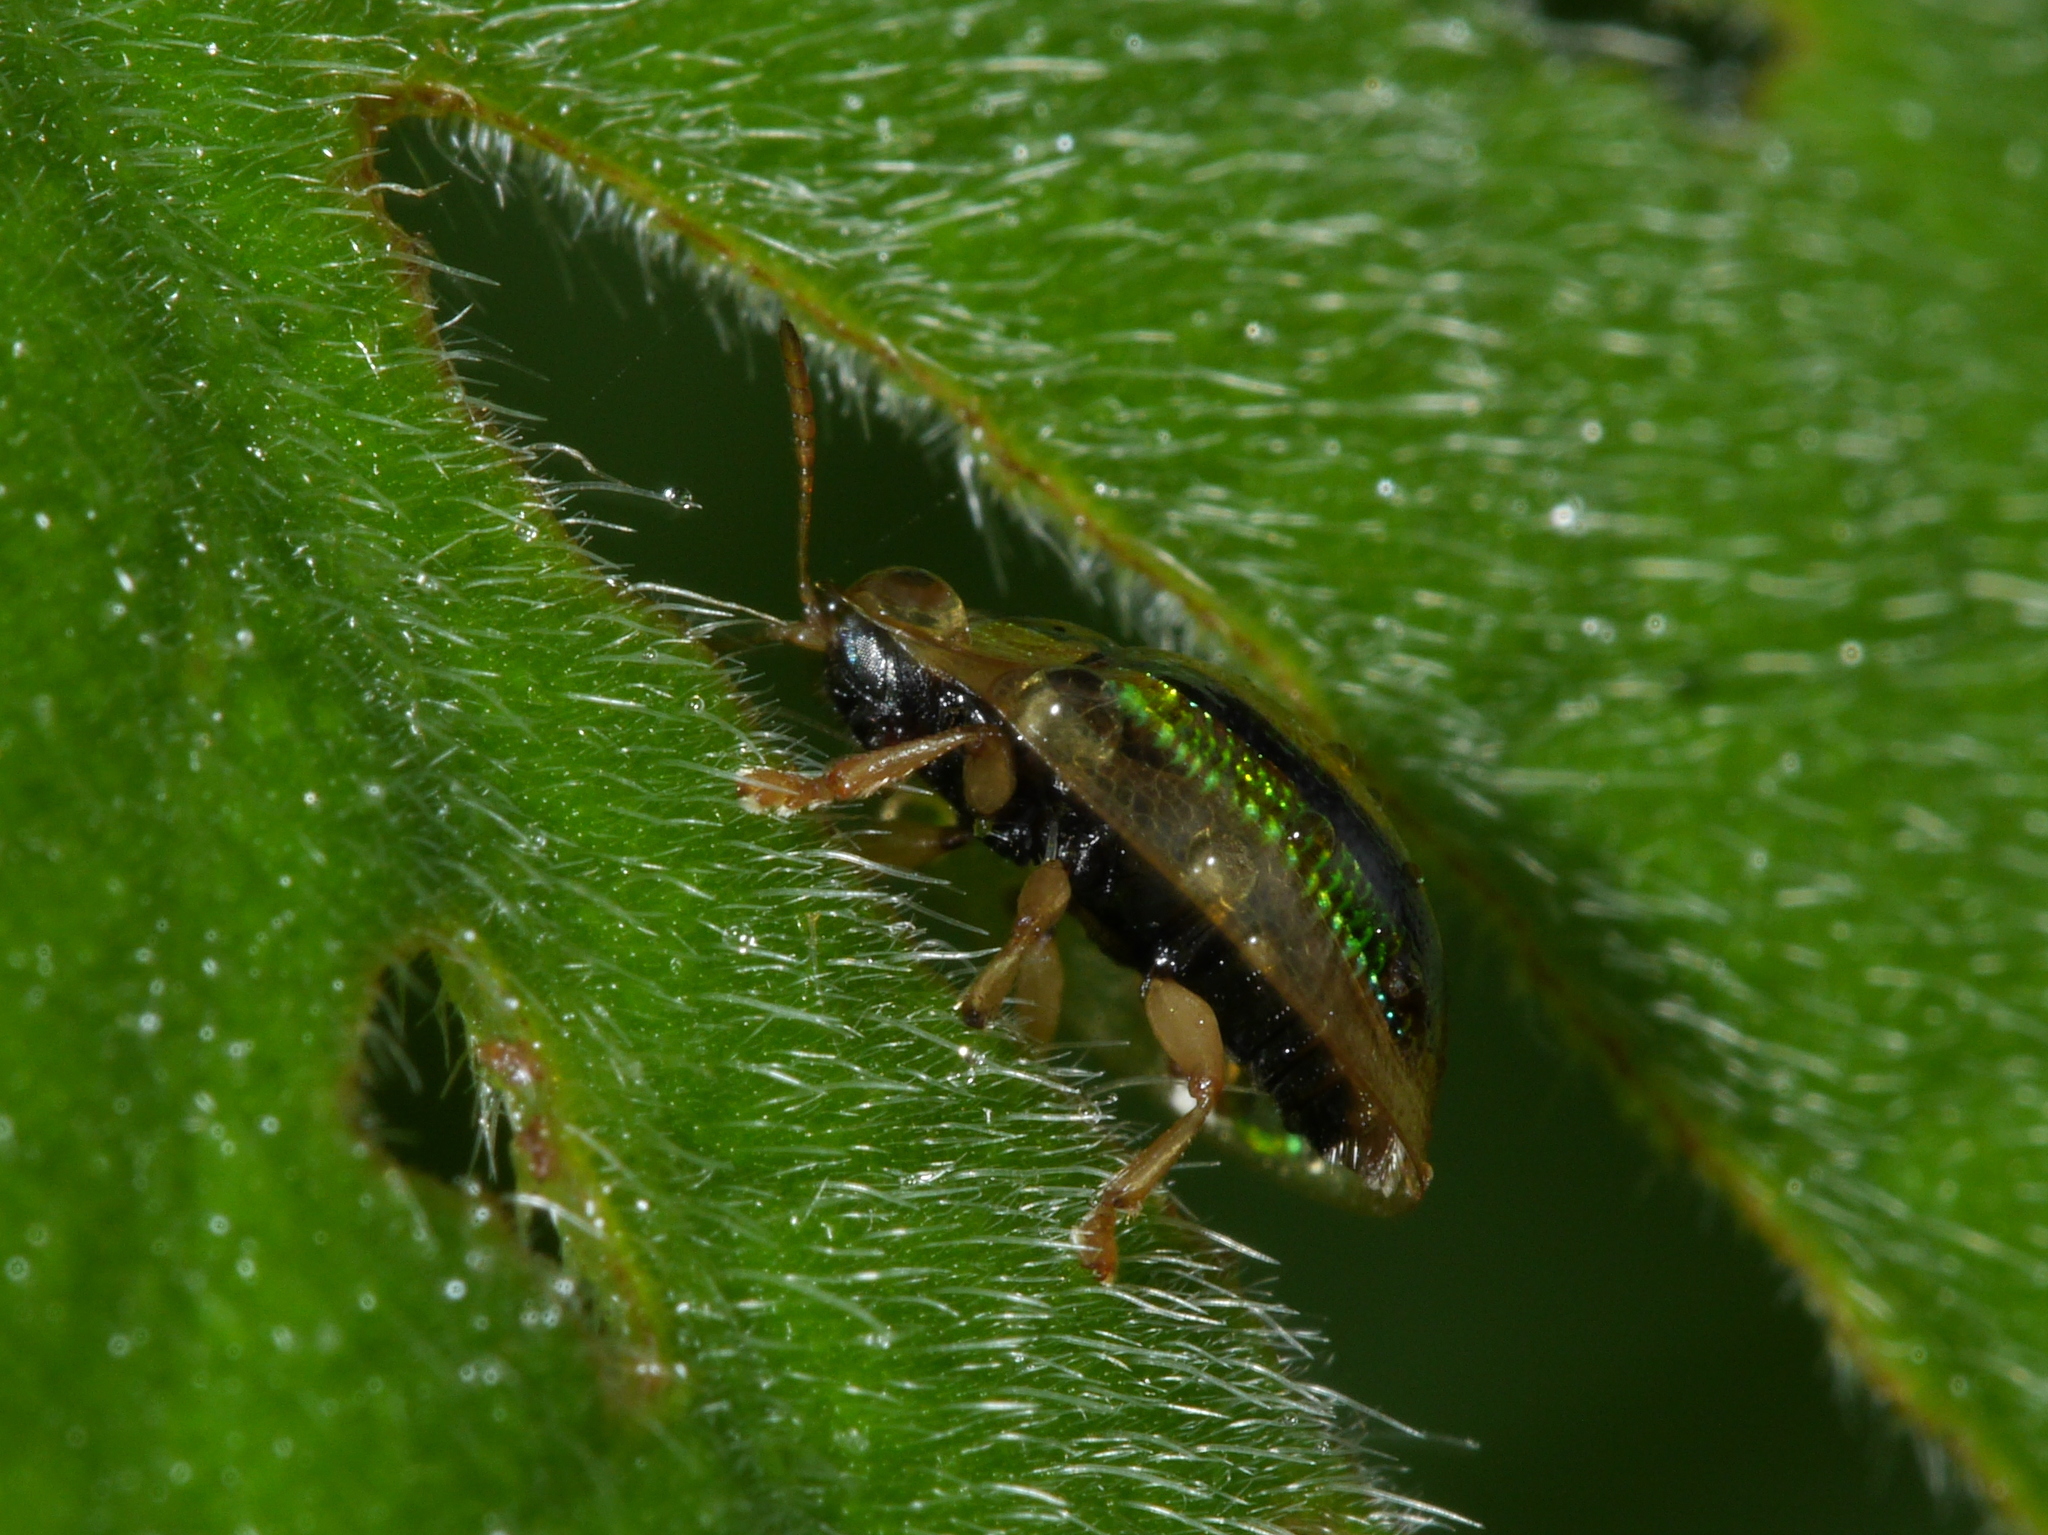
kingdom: Animalia
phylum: Arthropoda
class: Insecta
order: Coleoptera
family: Chrysomelidae
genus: Chiridopsis
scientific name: Chiridopsis aubei
